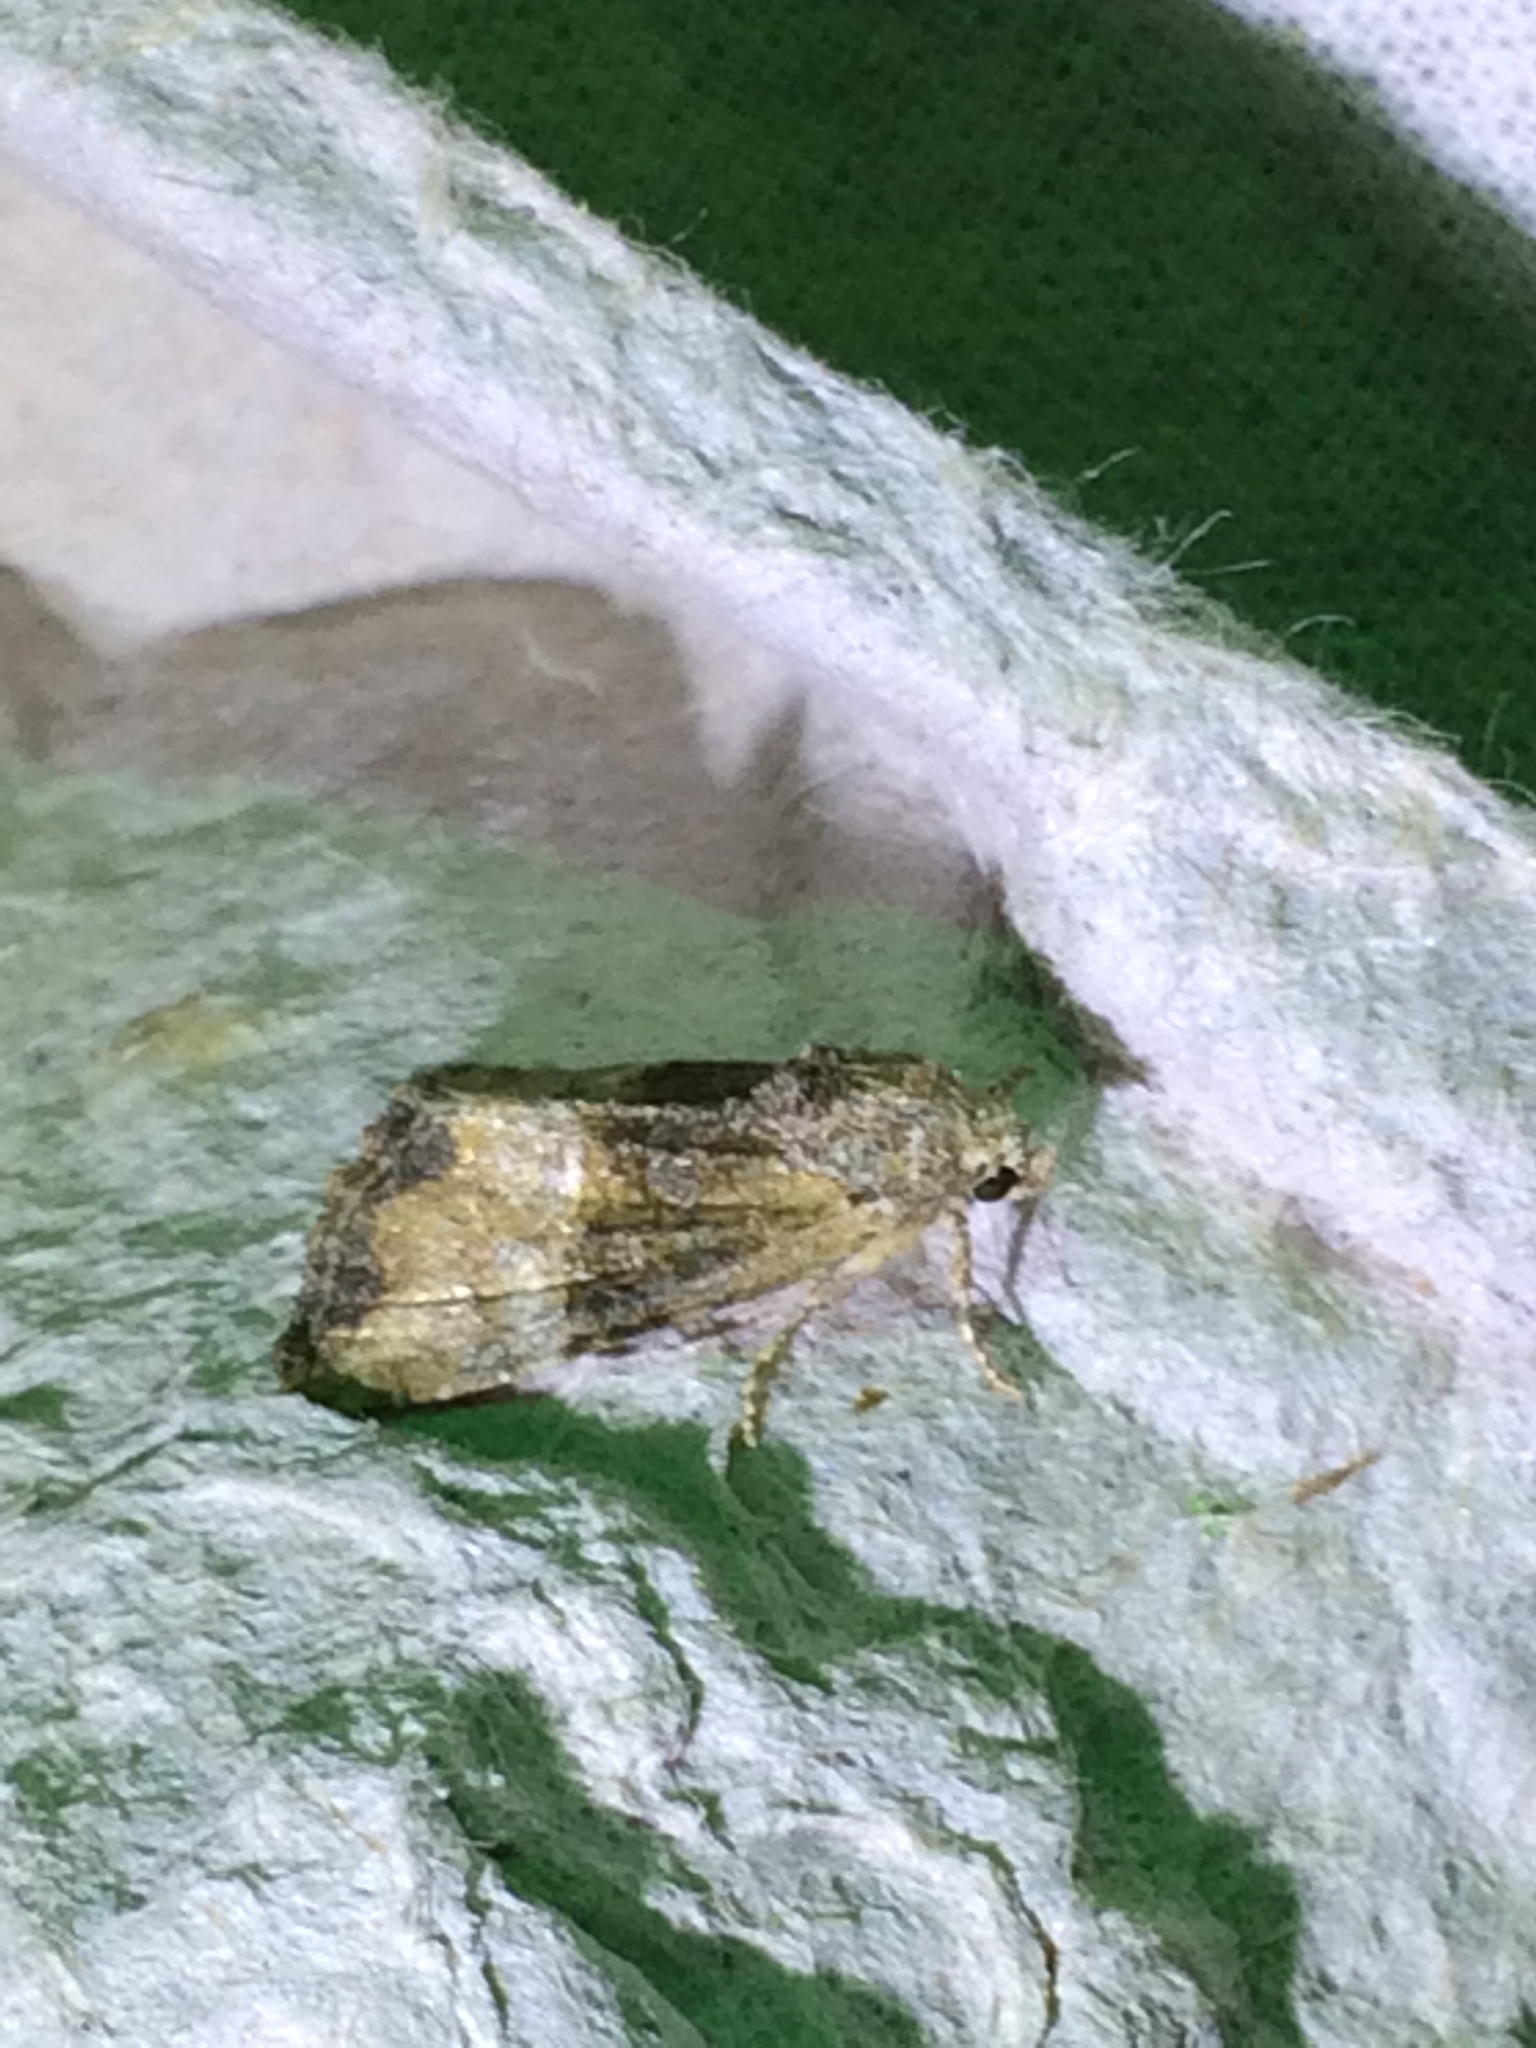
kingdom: Animalia
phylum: Arthropoda
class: Insecta
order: Lepidoptera
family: Noctuidae
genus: Mesoligia
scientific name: Mesoligia furuncula
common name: Cloaked minor
